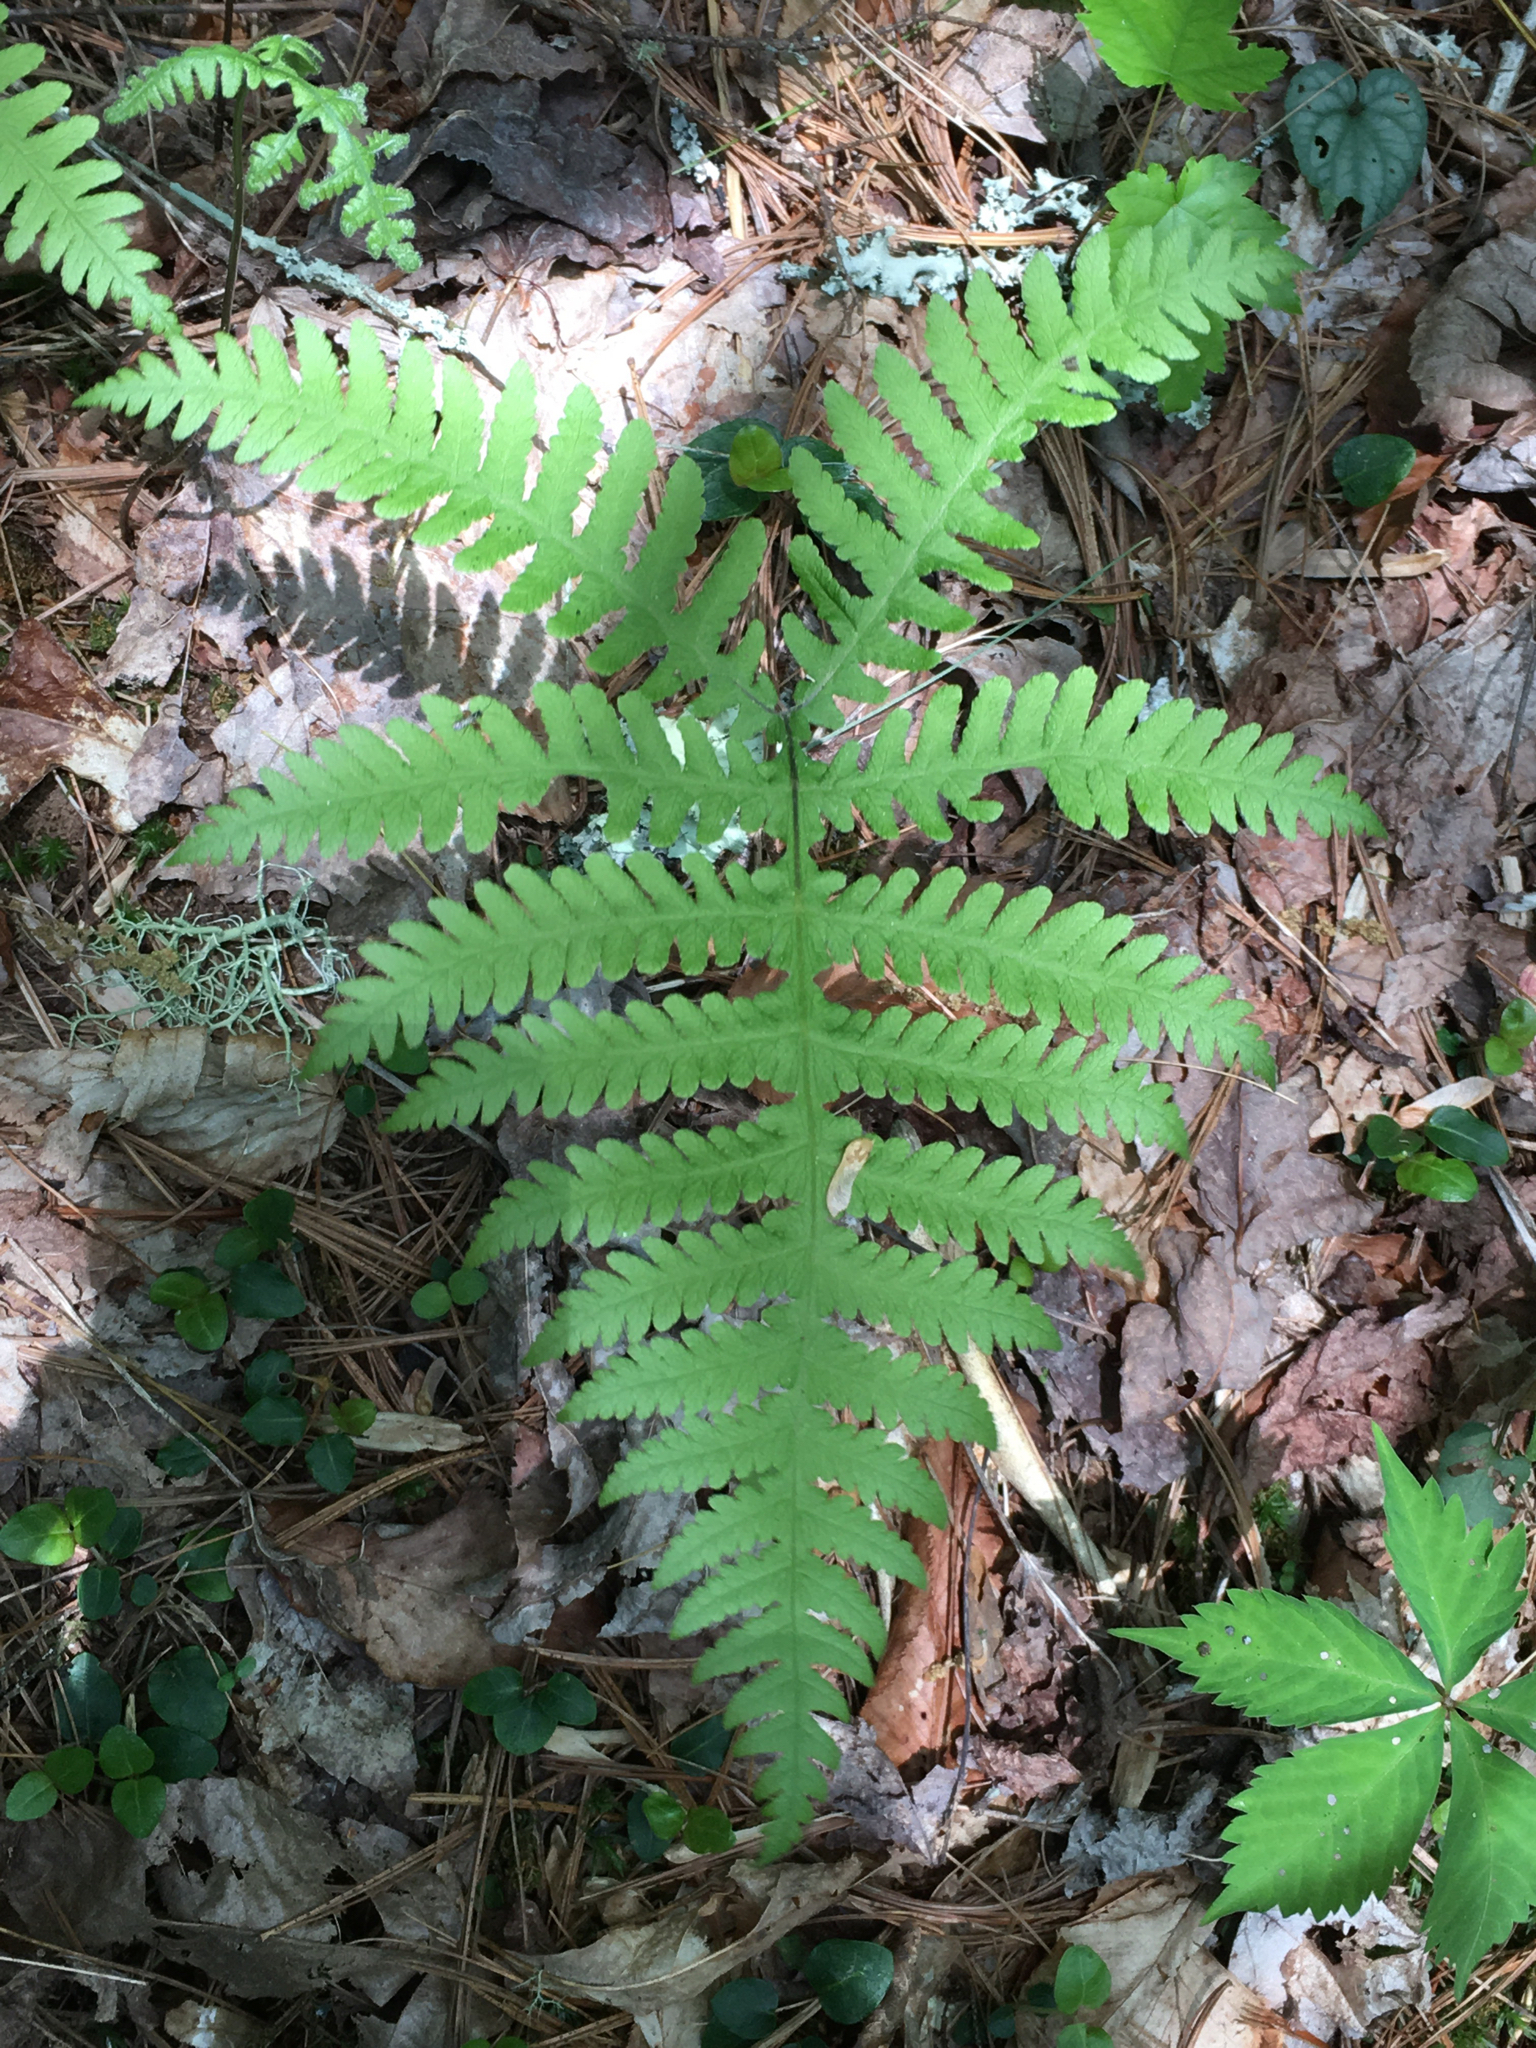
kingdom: Plantae
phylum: Tracheophyta
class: Polypodiopsida
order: Polypodiales
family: Thelypteridaceae
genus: Phegopteris
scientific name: Phegopteris hexagonoptera
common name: Broad beech fern
